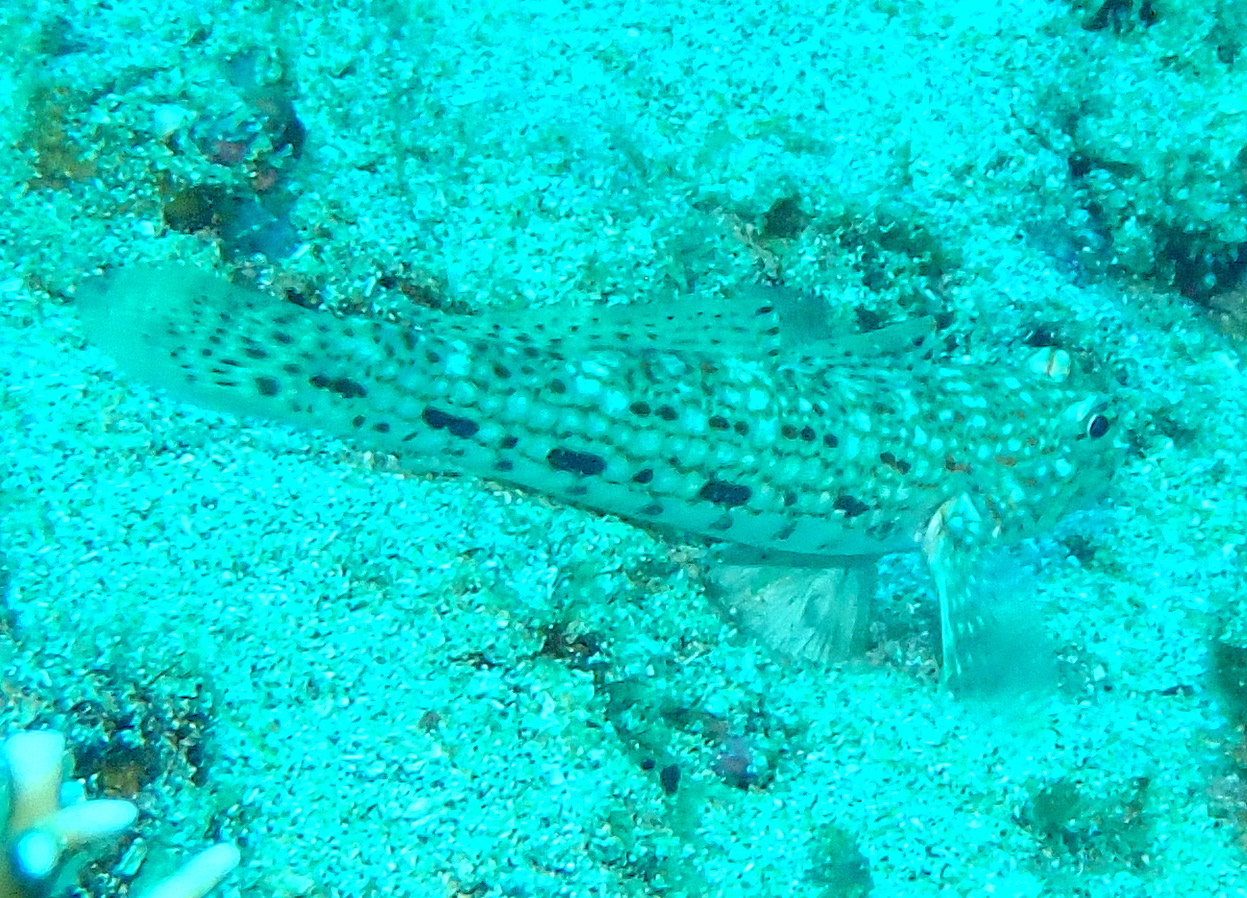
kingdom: Animalia
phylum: Chordata
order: Perciformes
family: Gobiidae
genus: Istigobius
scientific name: Istigobius decoratus
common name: Decorated goby
